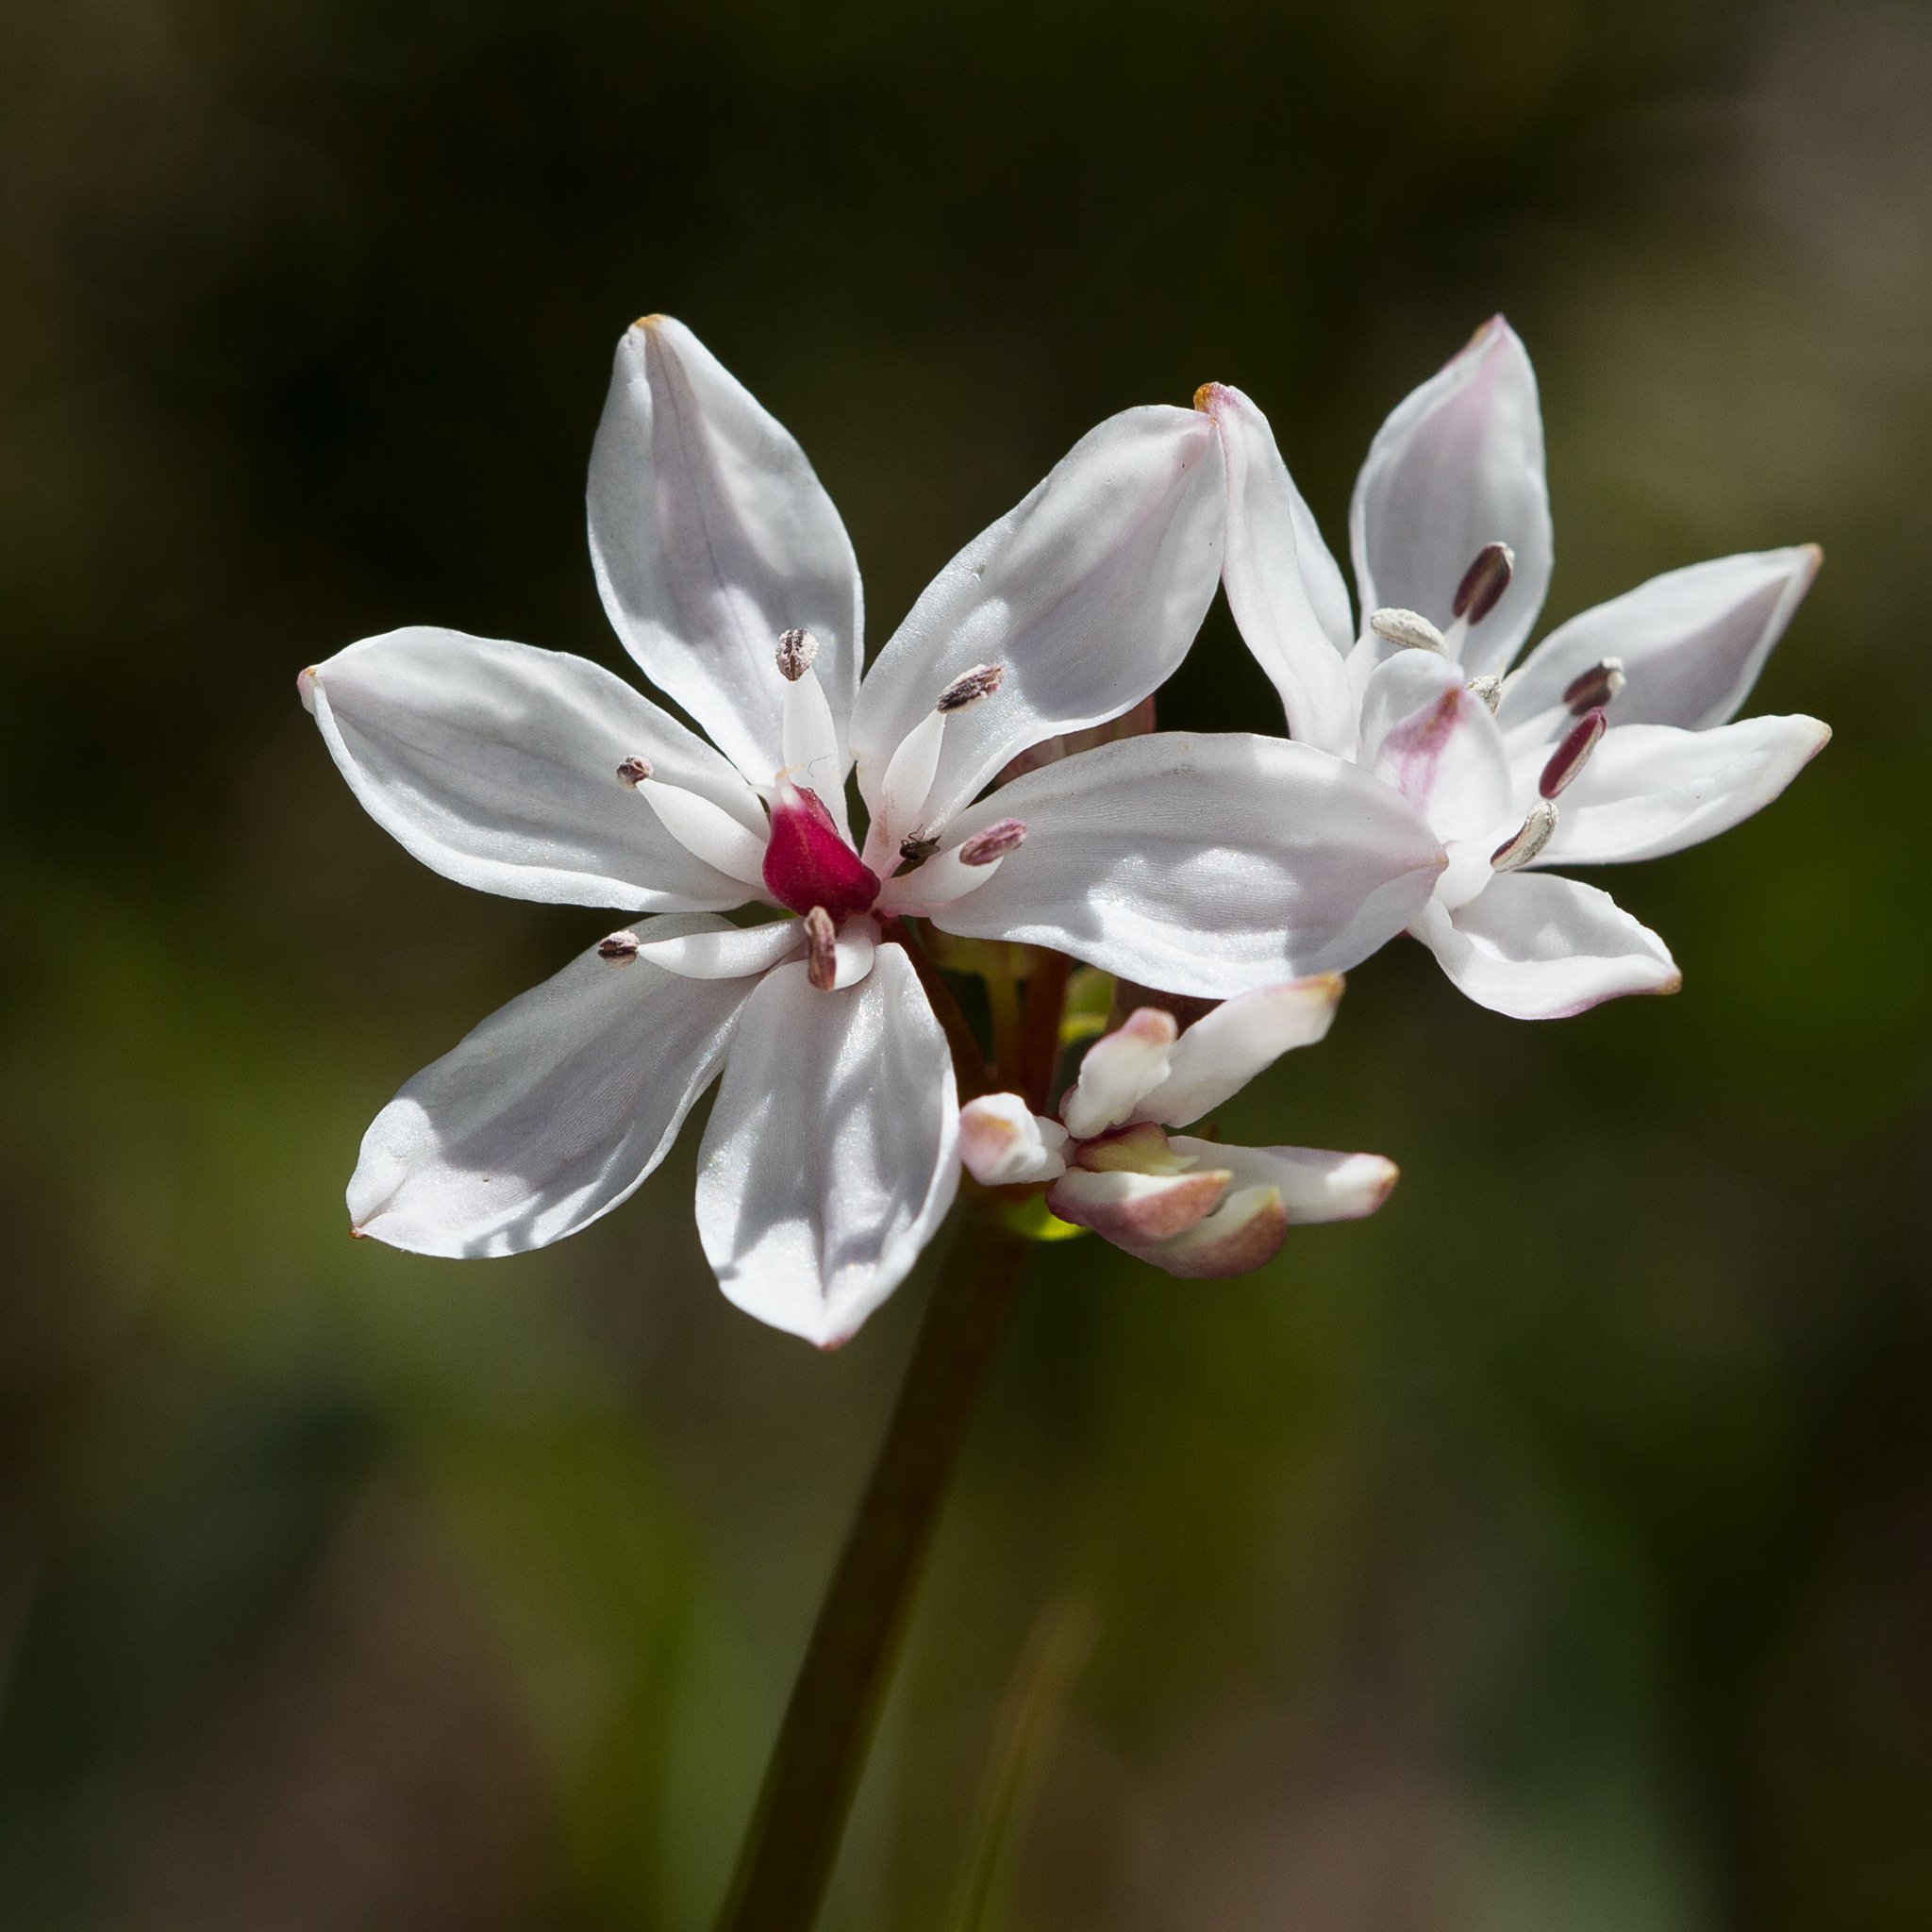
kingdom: Plantae
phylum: Tracheophyta
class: Liliopsida
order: Liliales
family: Colchicaceae
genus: Burchardia
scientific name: Burchardia umbellata
